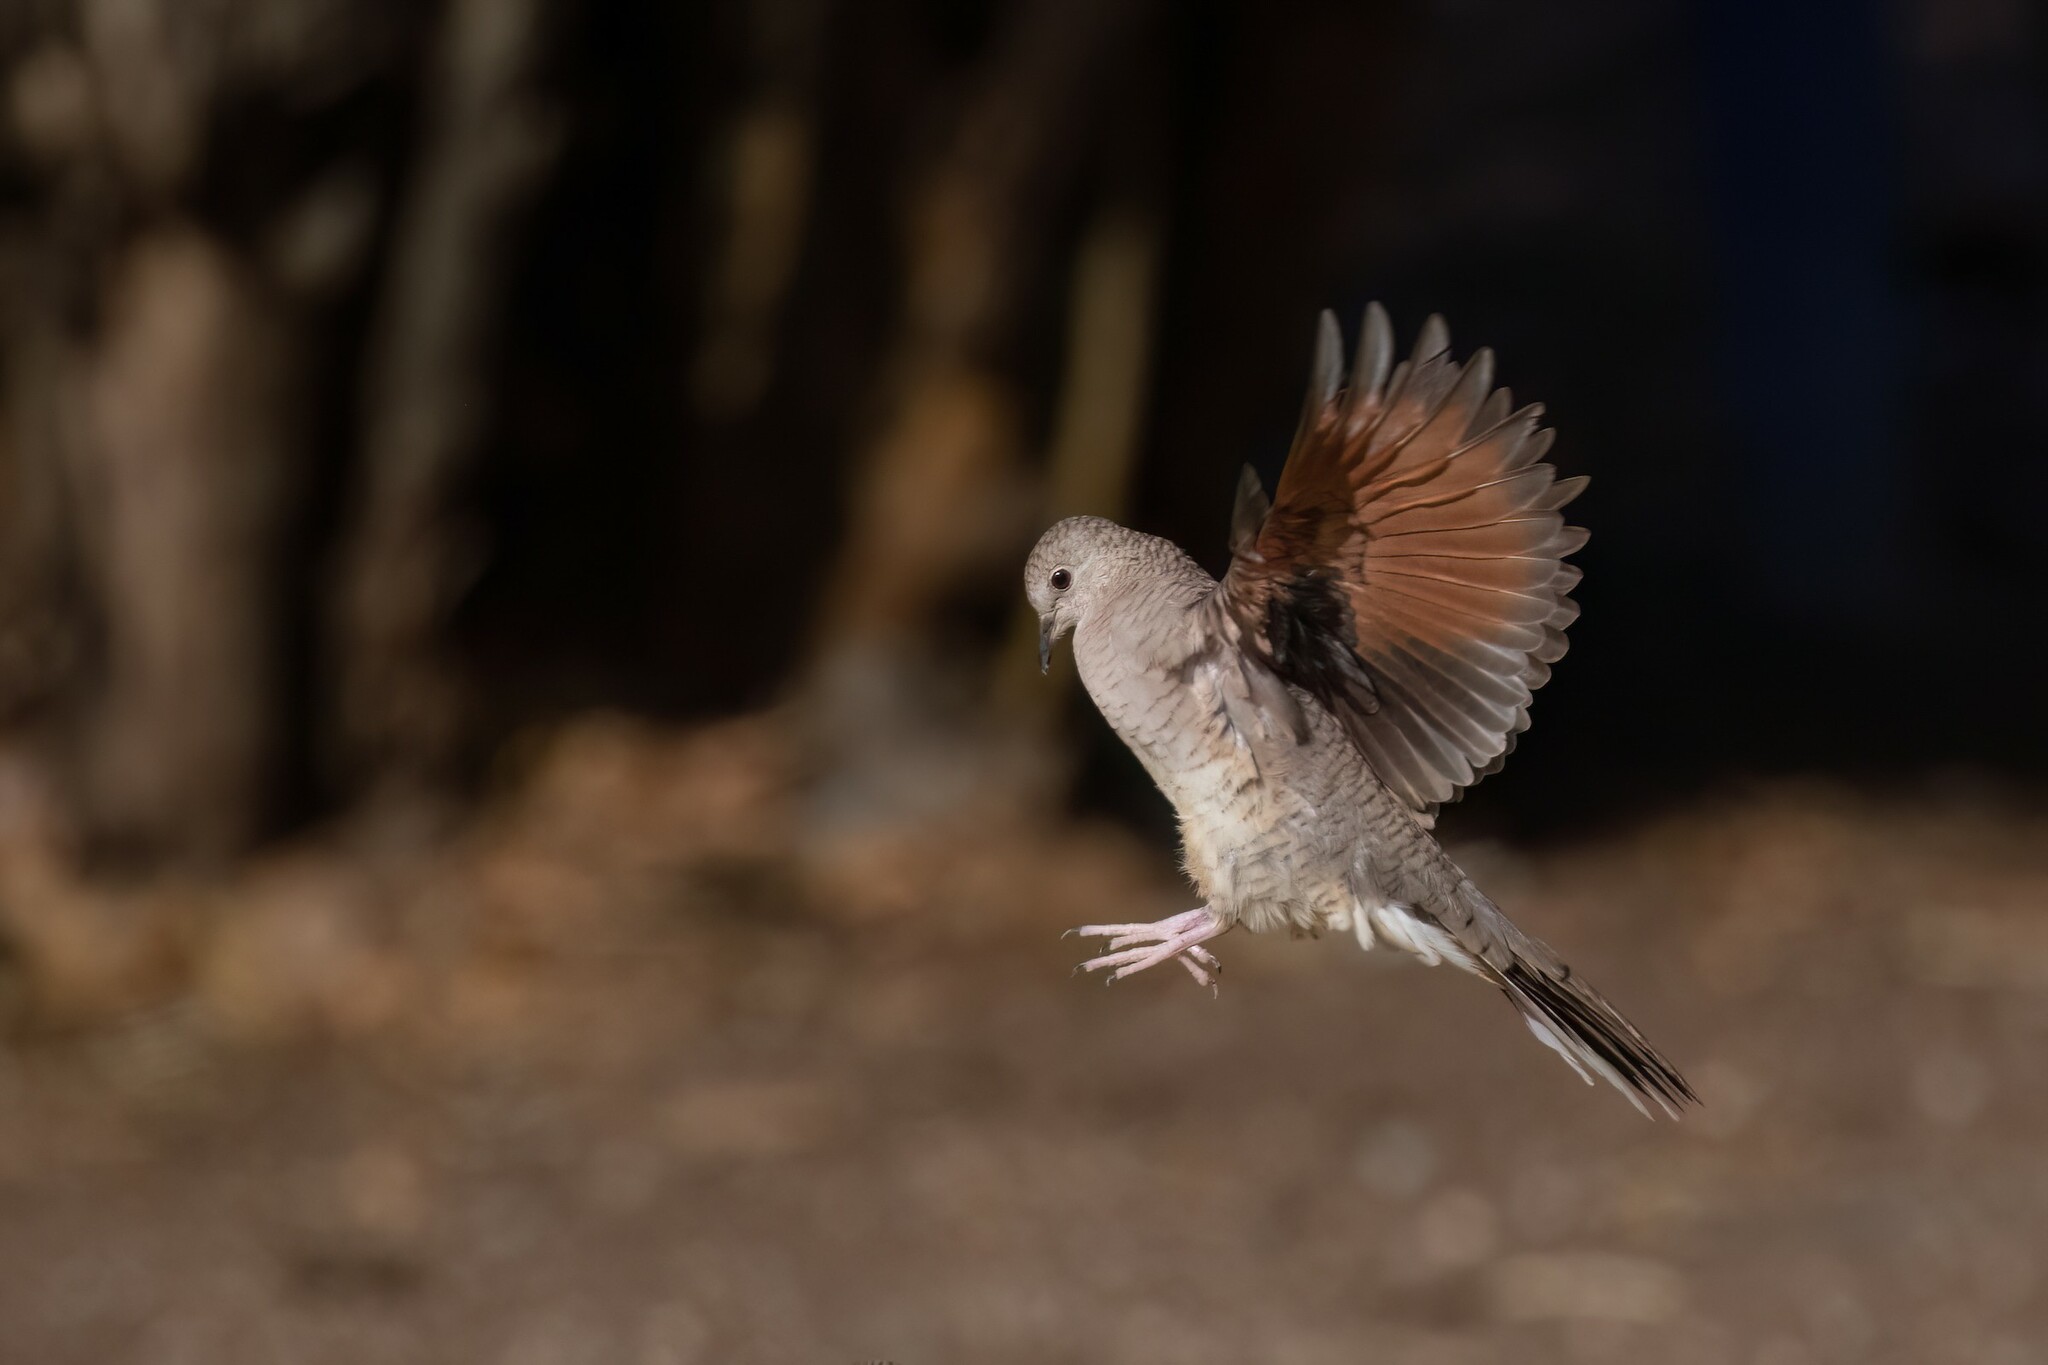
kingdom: Animalia
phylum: Chordata
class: Aves
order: Columbiformes
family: Columbidae
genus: Columbina
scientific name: Columbina inca
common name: Inca dove
